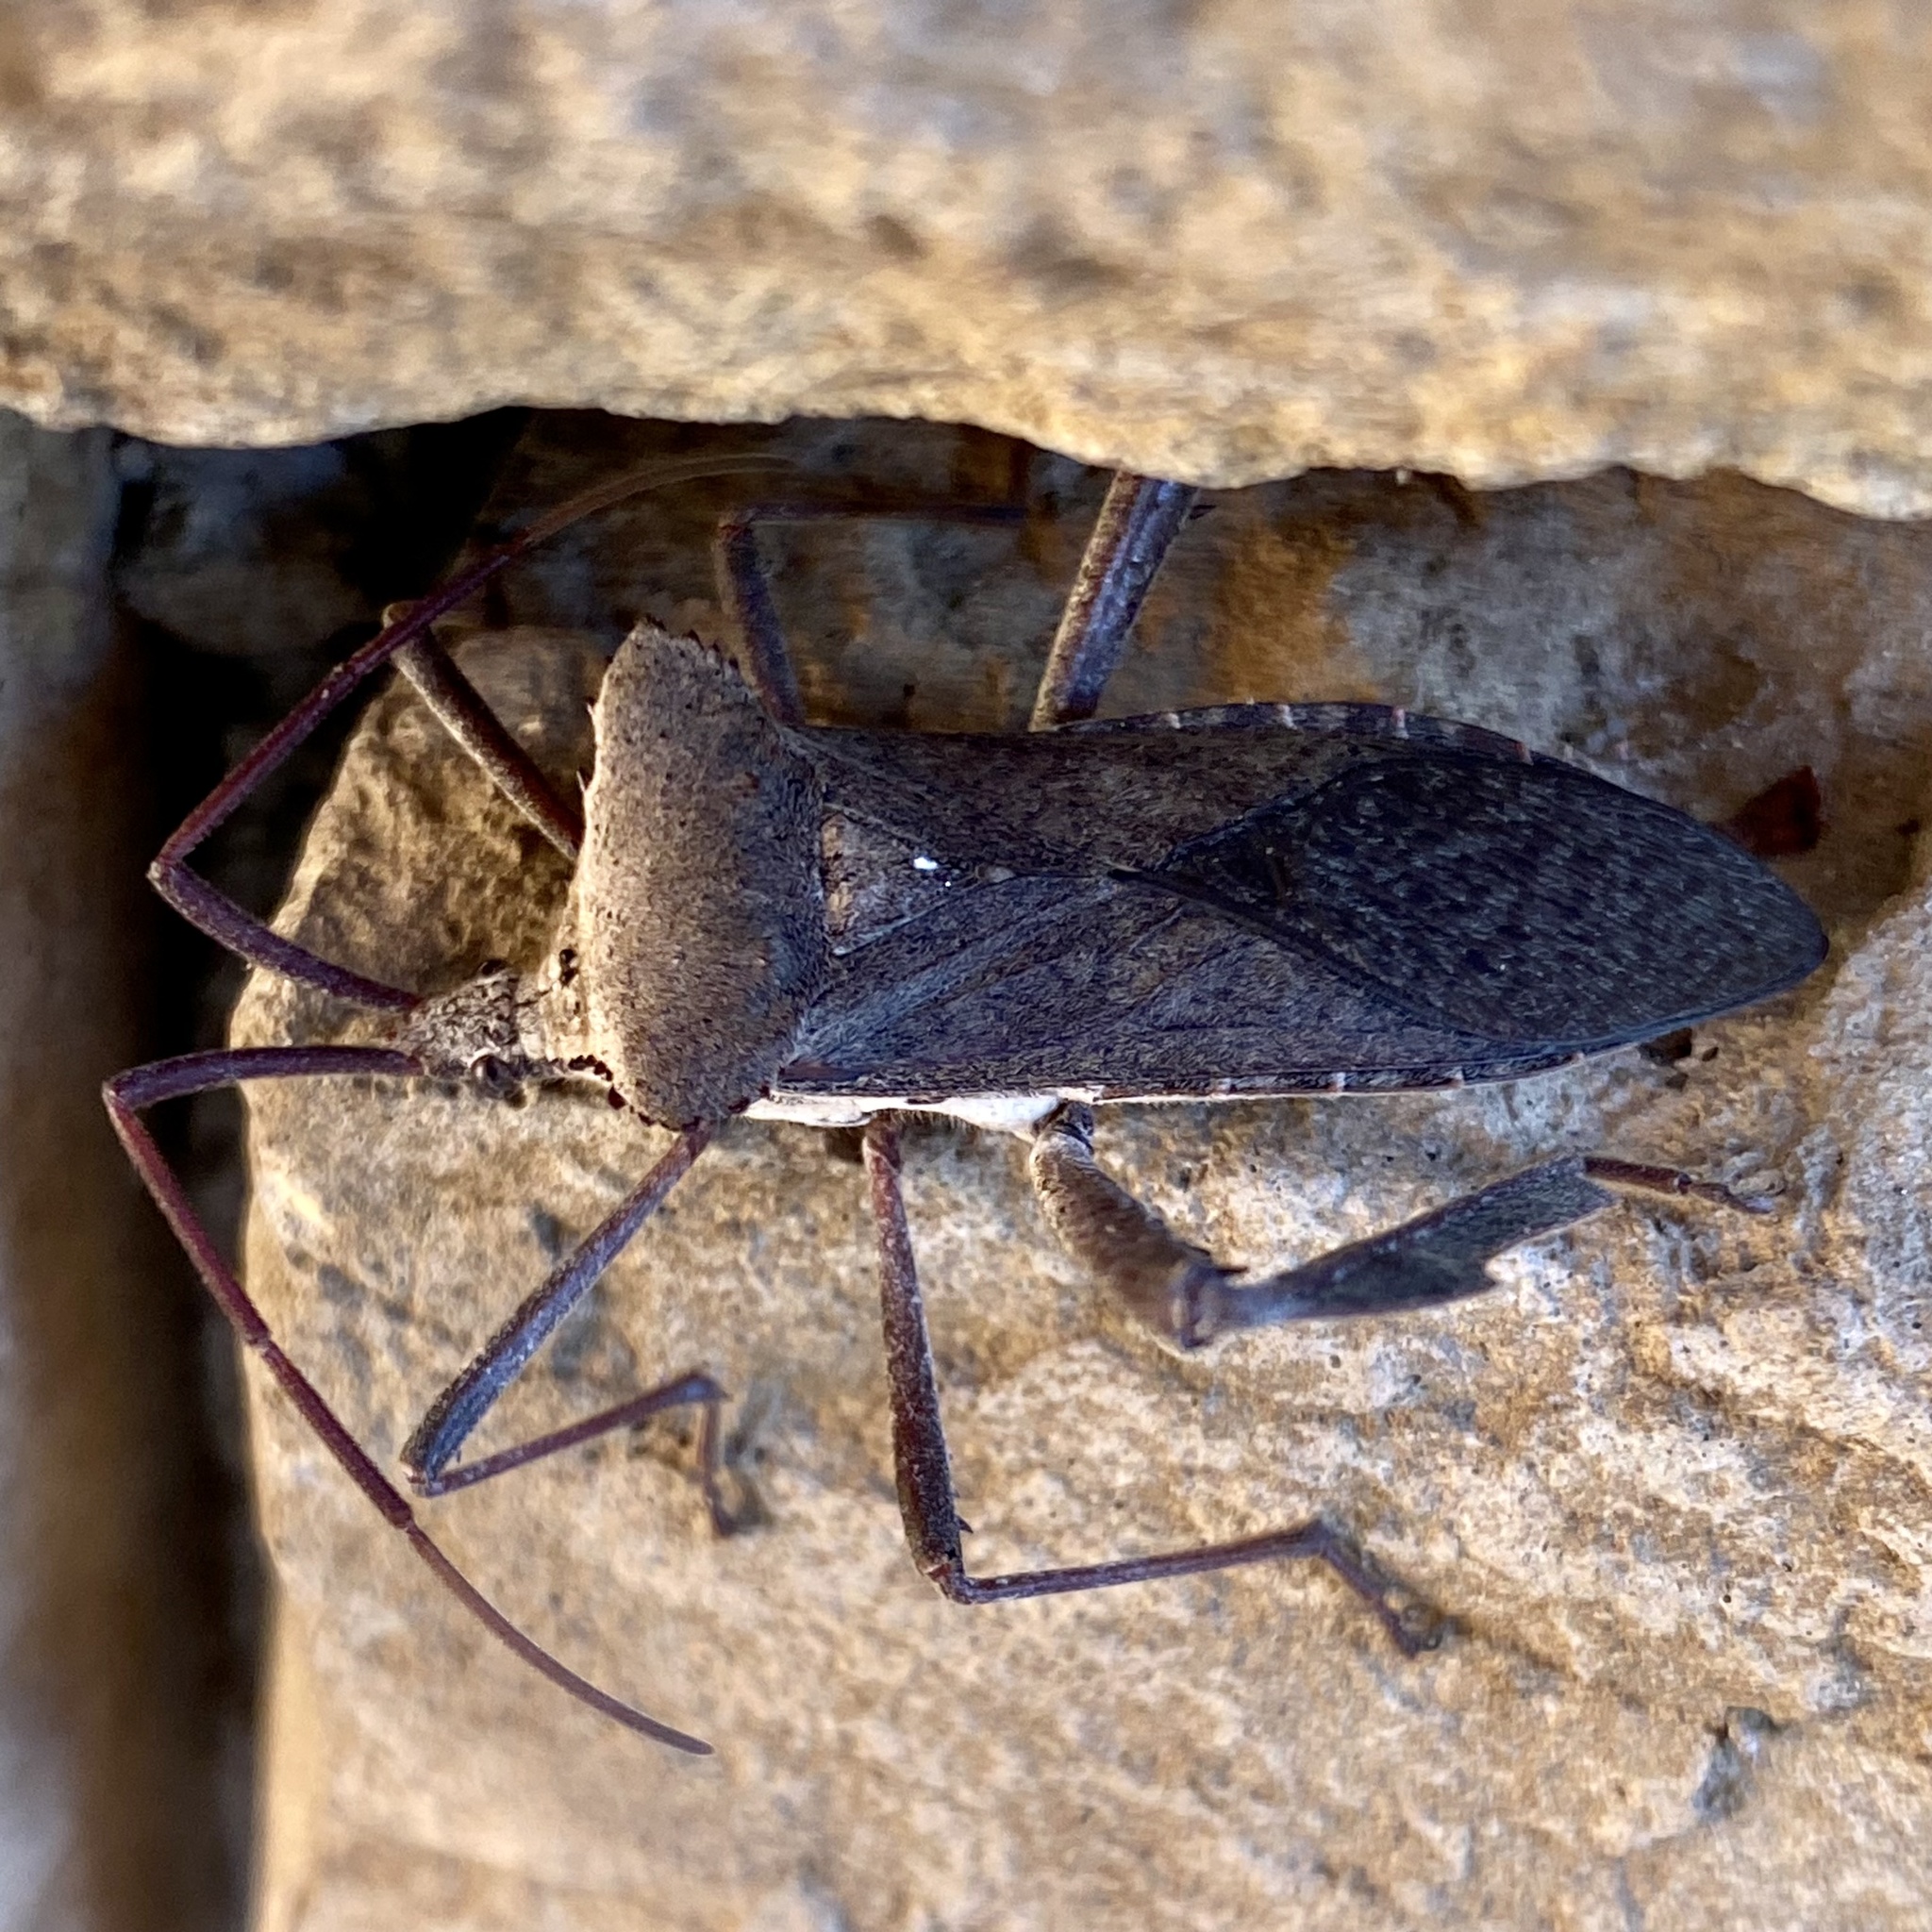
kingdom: Animalia
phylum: Arthropoda
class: Insecta
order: Hemiptera
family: Coreidae
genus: Acanthocephala
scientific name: Acanthocephala declivis
